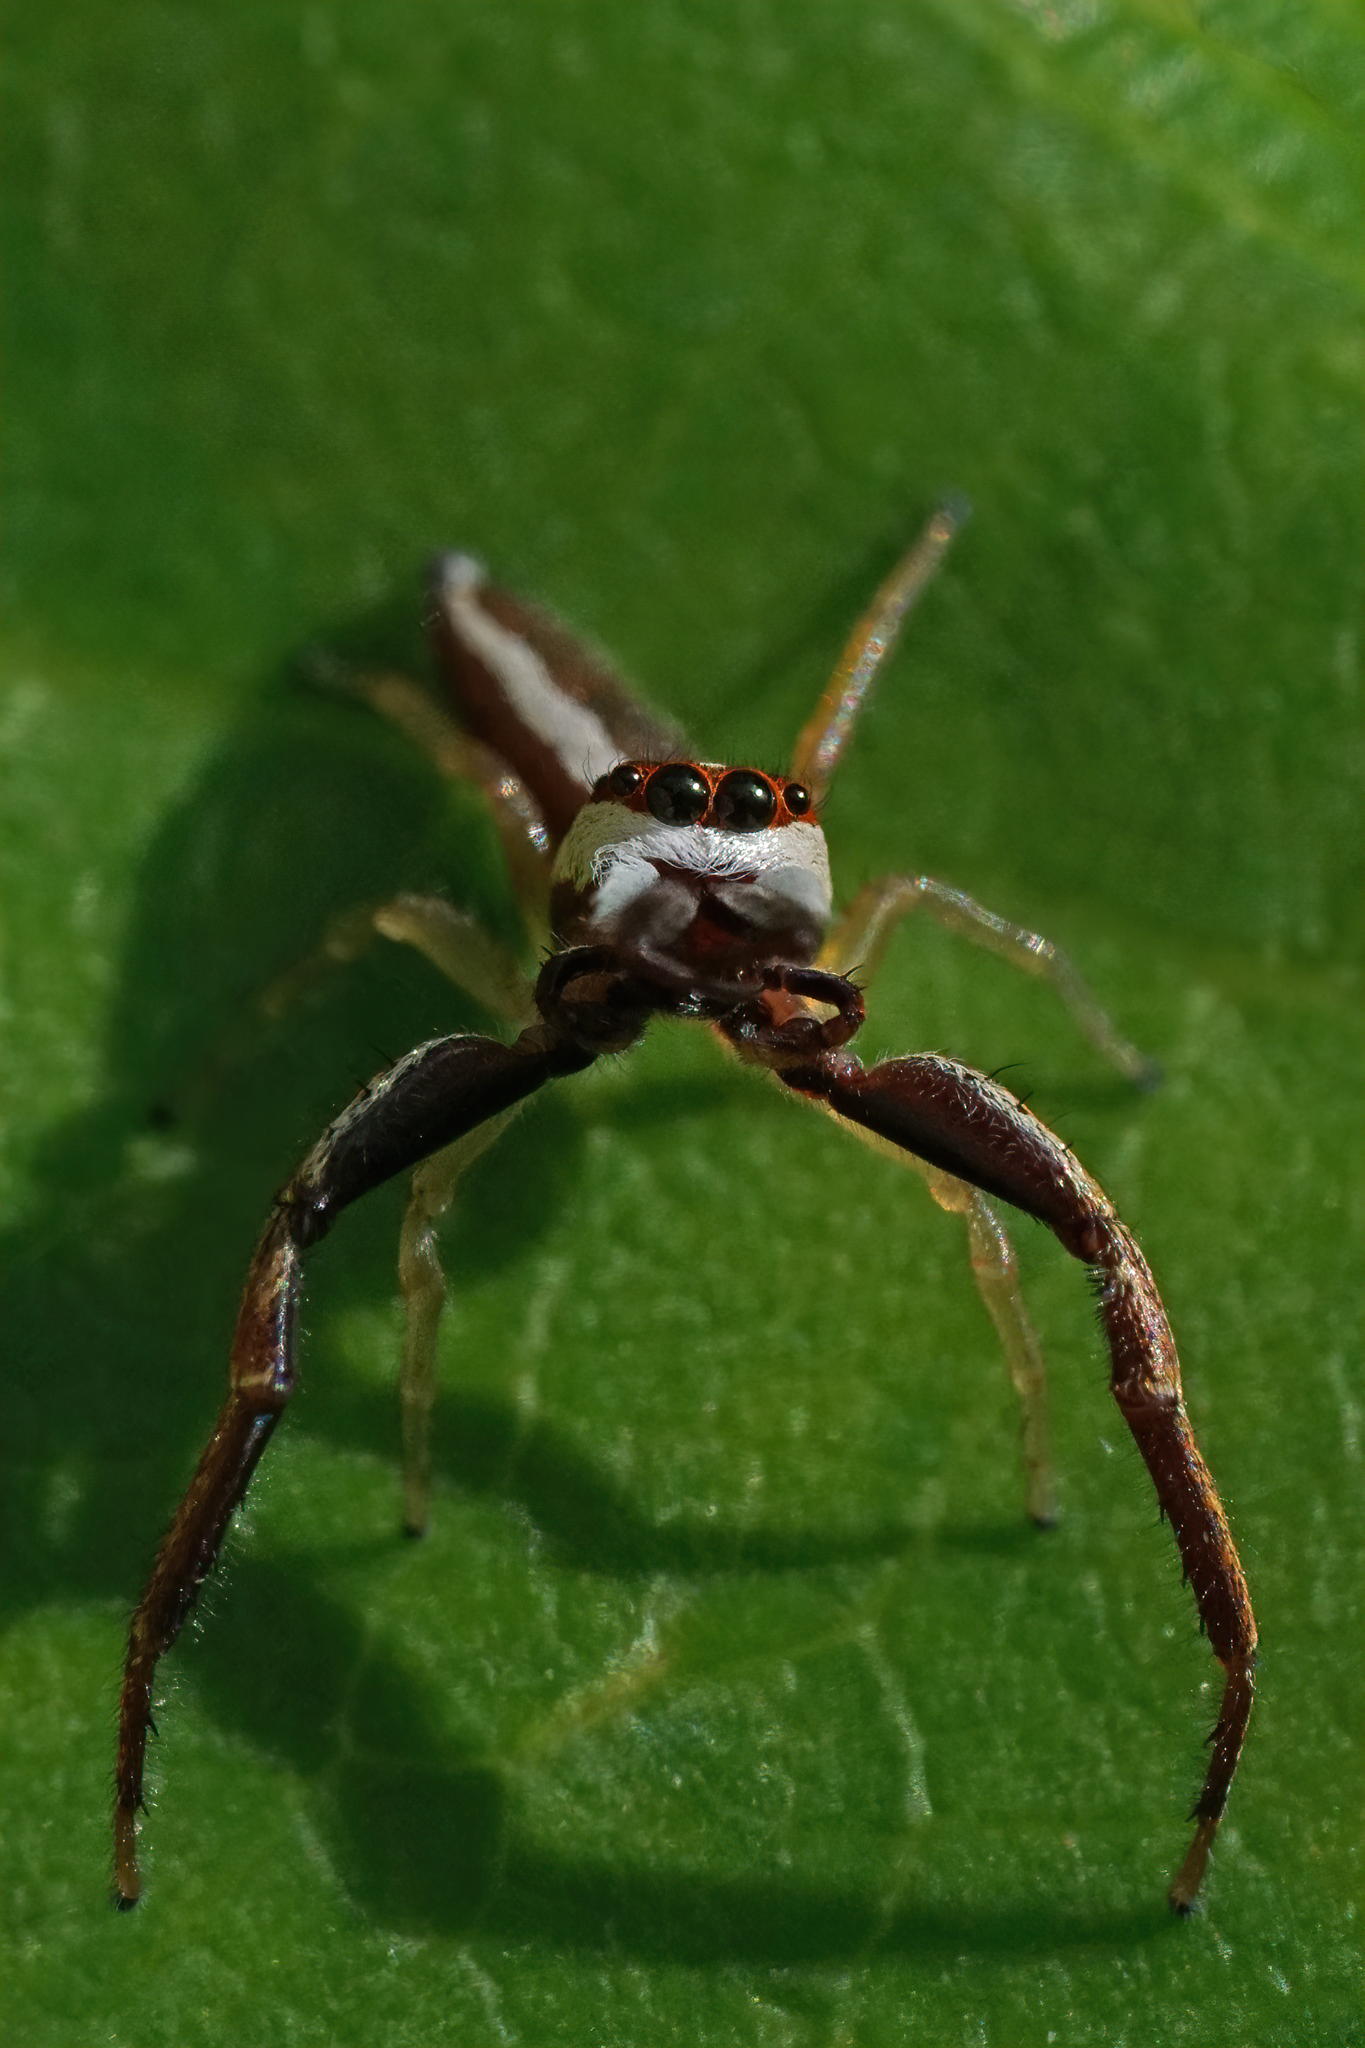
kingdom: Animalia
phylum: Arthropoda
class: Arachnida
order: Araneae
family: Salticidae
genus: Hentzia
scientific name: Hentzia palmarum
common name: Common hentz jumping spider
